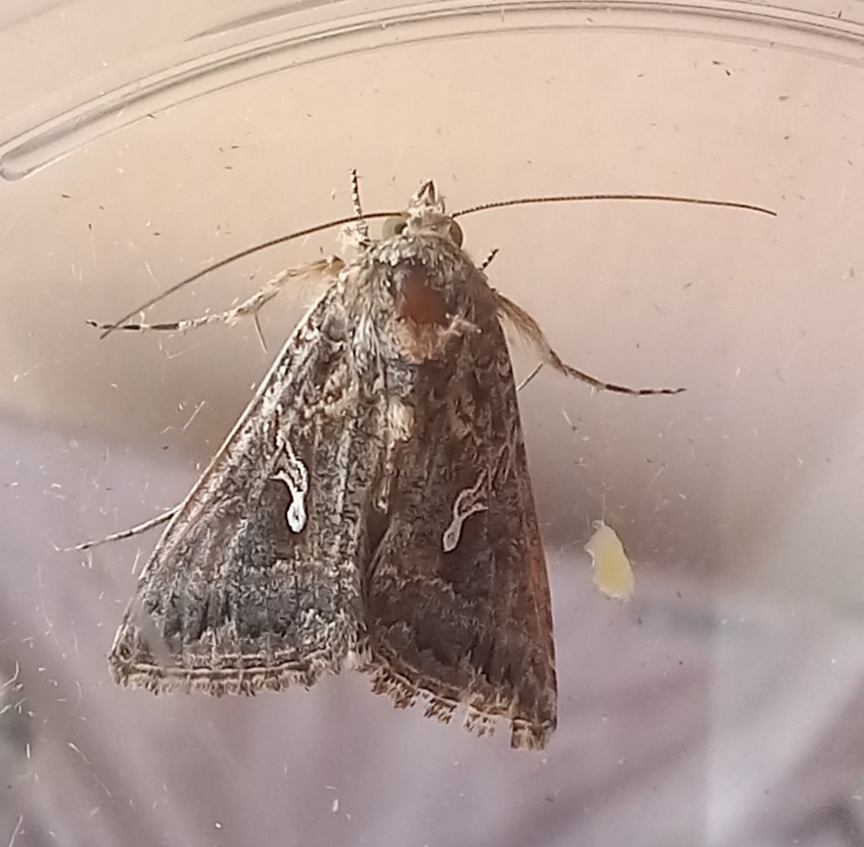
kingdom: Animalia
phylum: Arthropoda
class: Insecta
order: Lepidoptera
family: Noctuidae
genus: Trichoplusia
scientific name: Trichoplusia ni
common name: Ni moth
